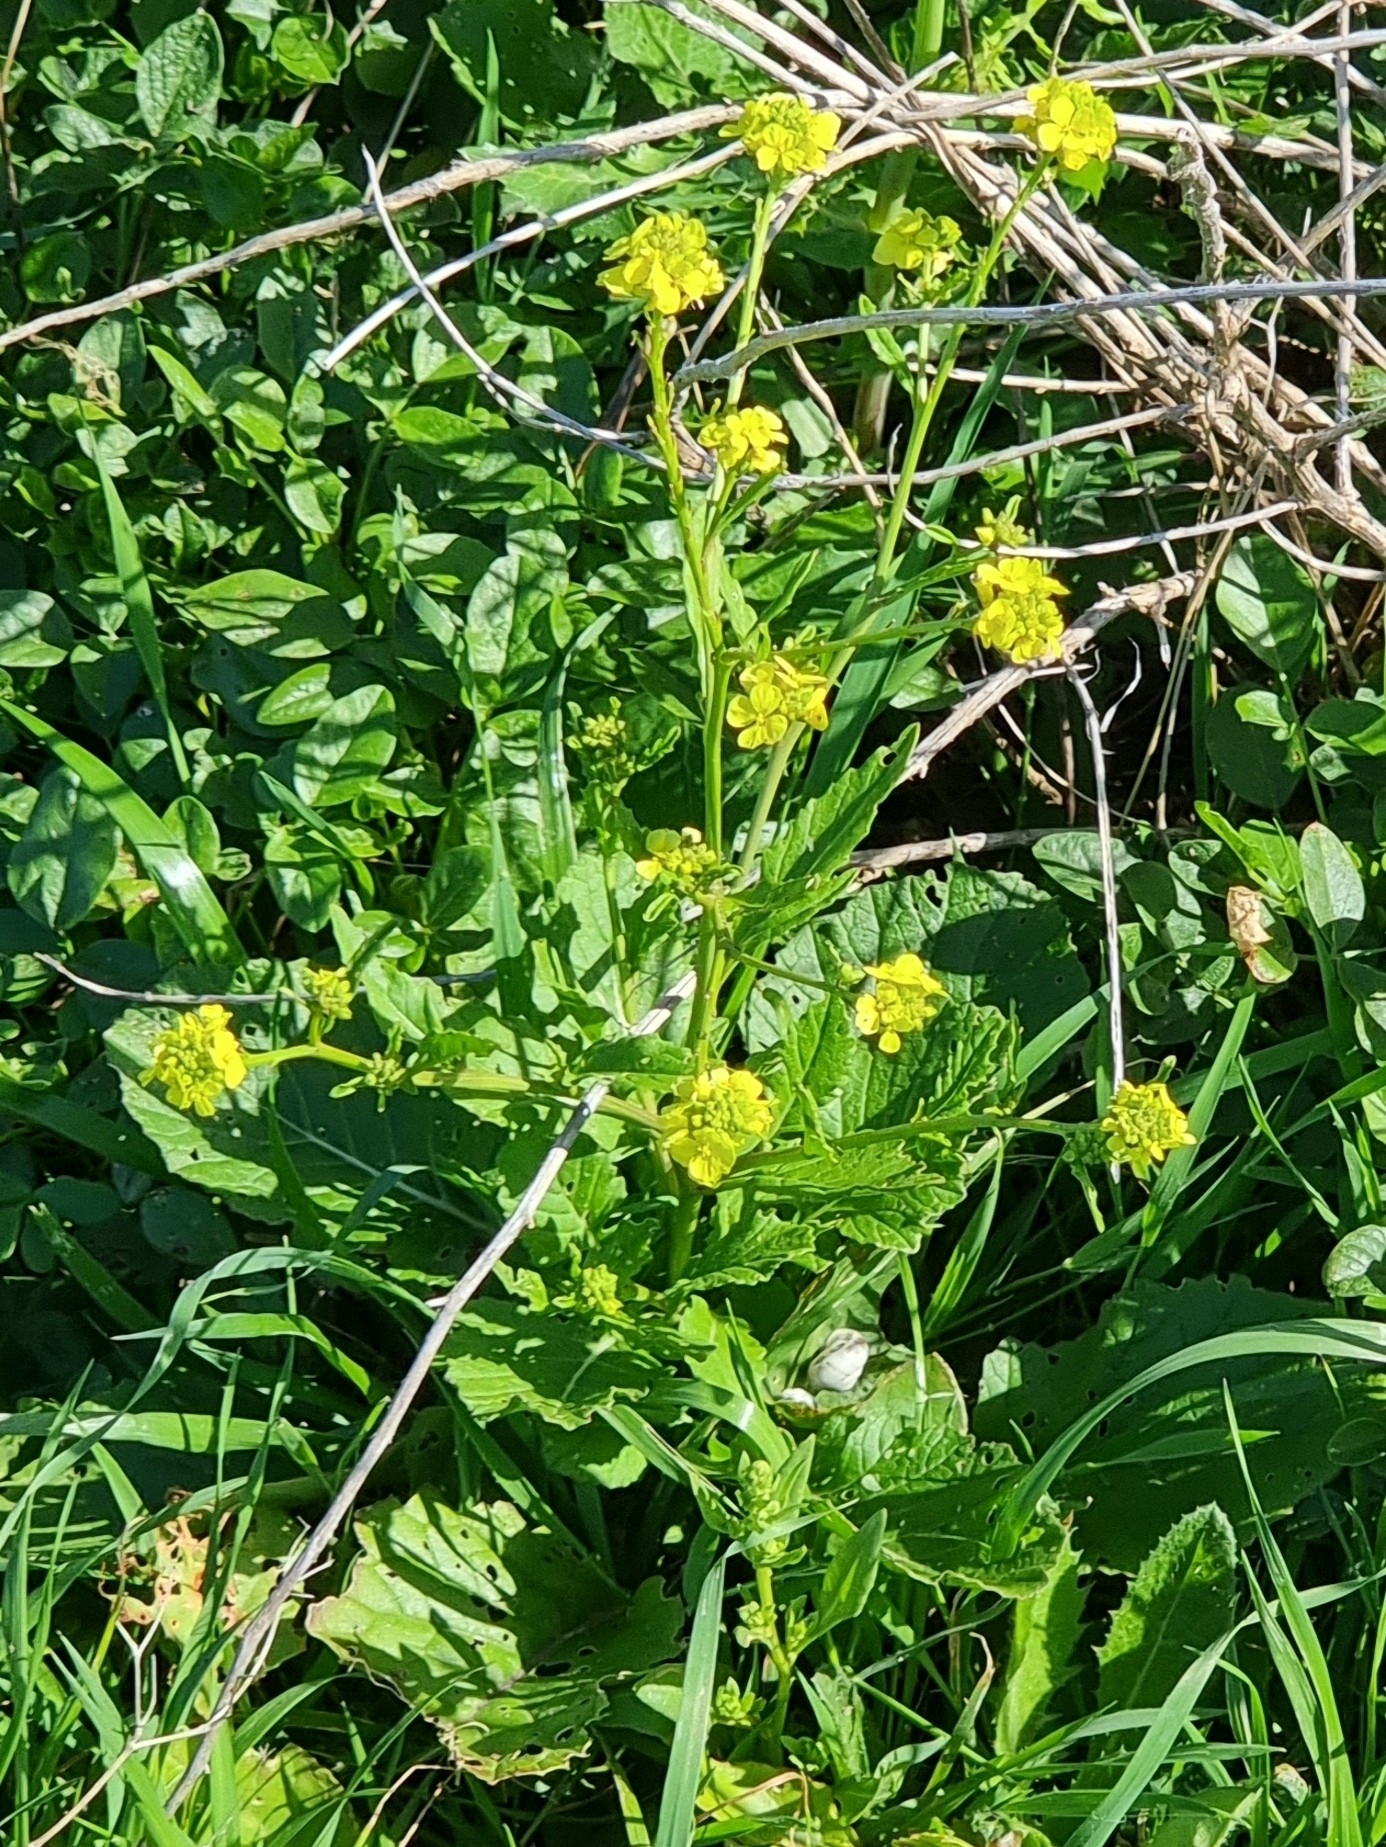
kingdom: Plantae
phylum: Tracheophyta
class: Magnoliopsida
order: Brassicales
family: Brassicaceae
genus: Barbarea
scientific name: Barbarea verna
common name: American cress
